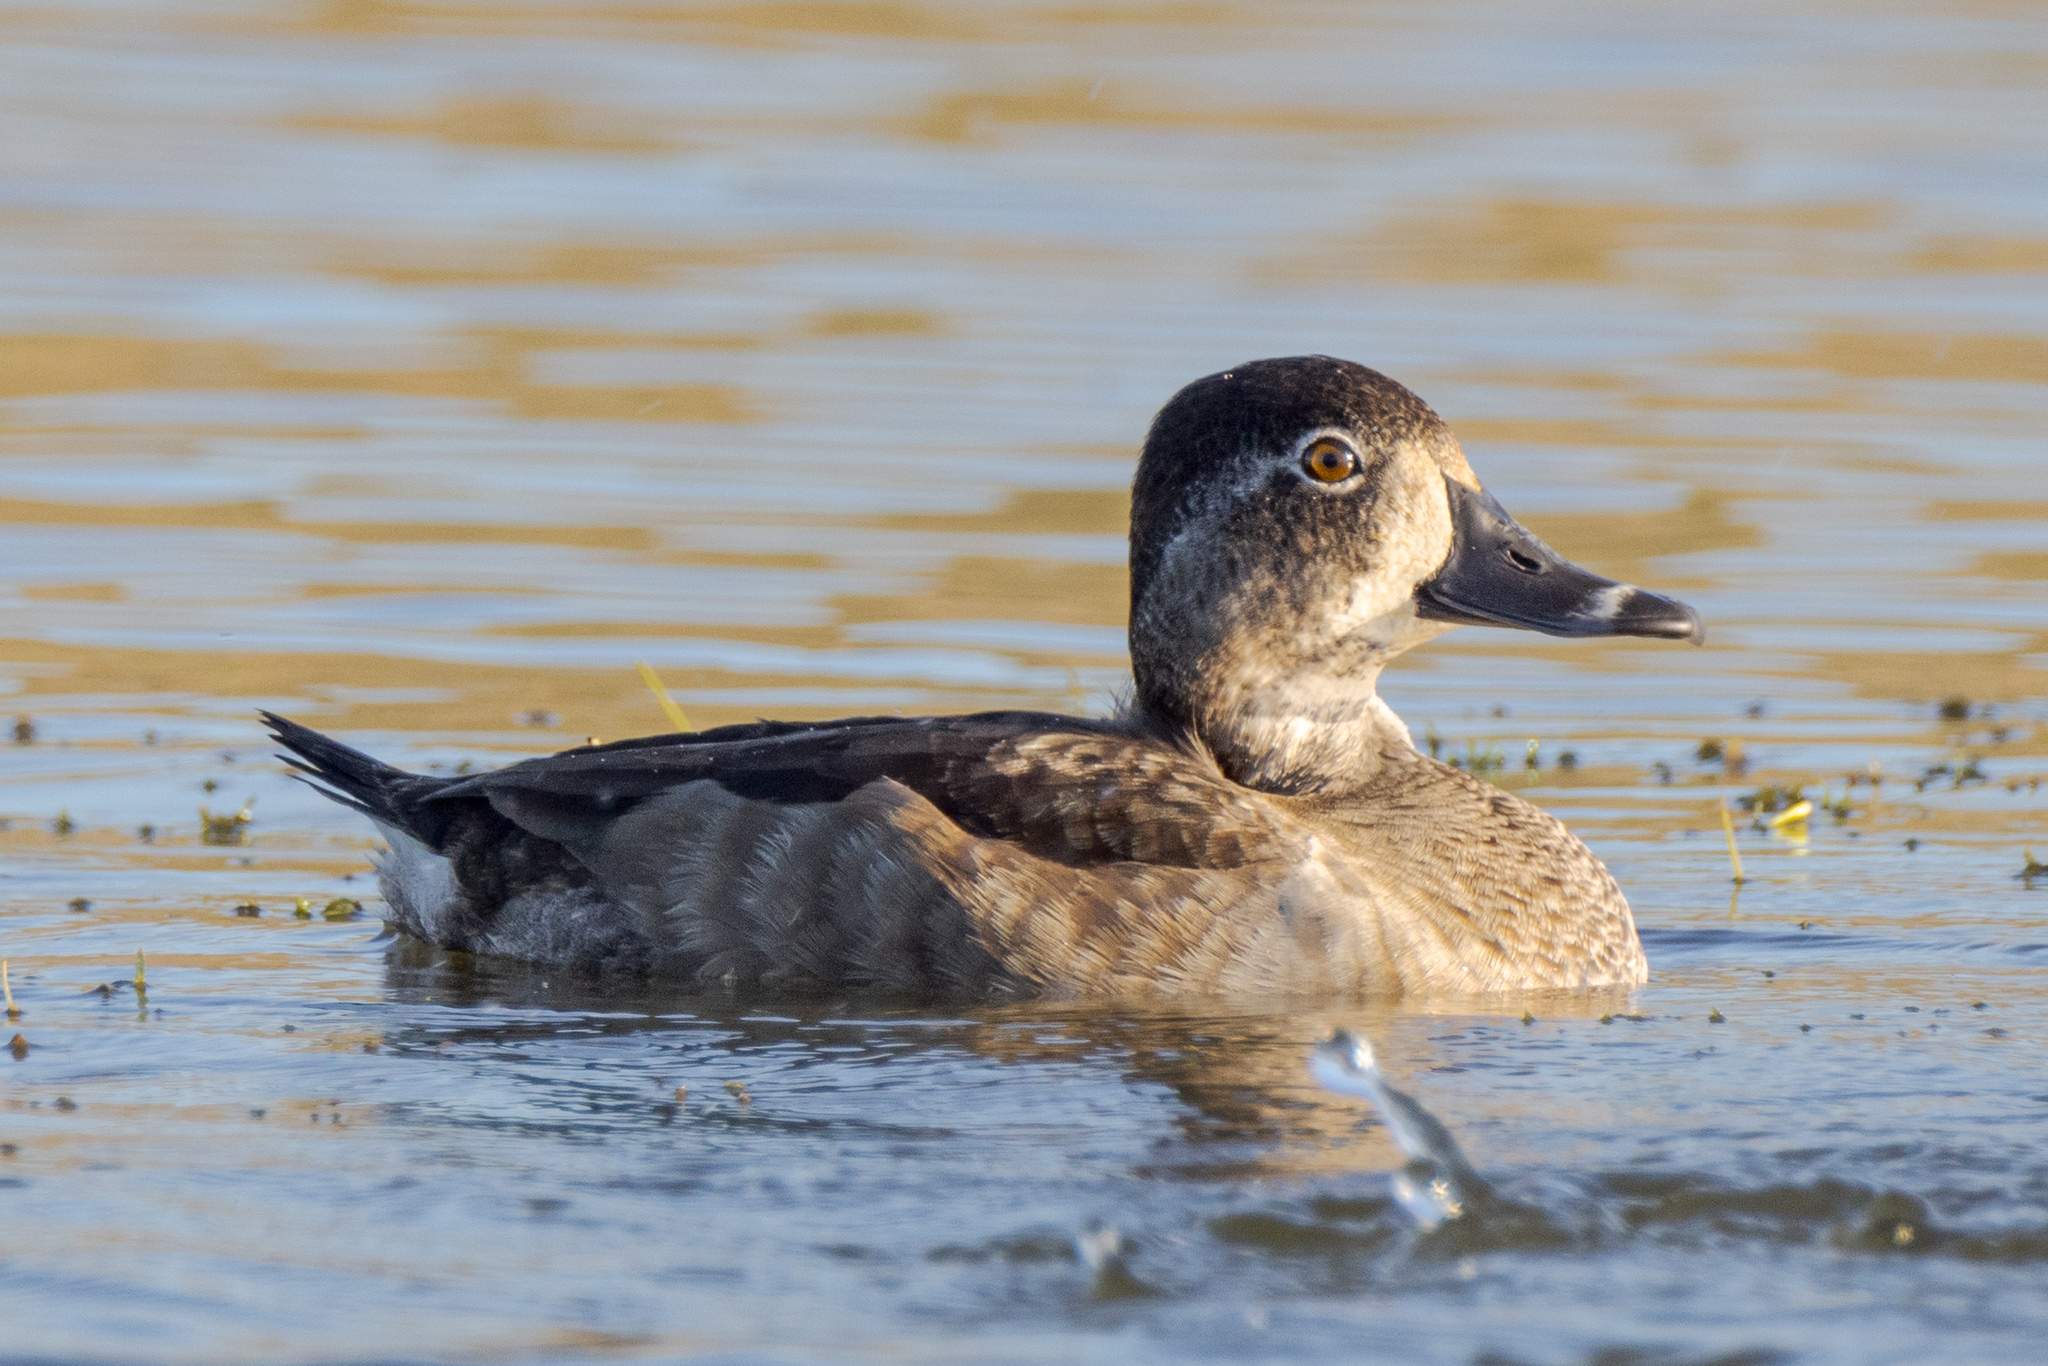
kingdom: Animalia
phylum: Chordata
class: Aves
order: Anseriformes
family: Anatidae
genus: Aythya
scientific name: Aythya collaris
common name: Ring-necked duck
